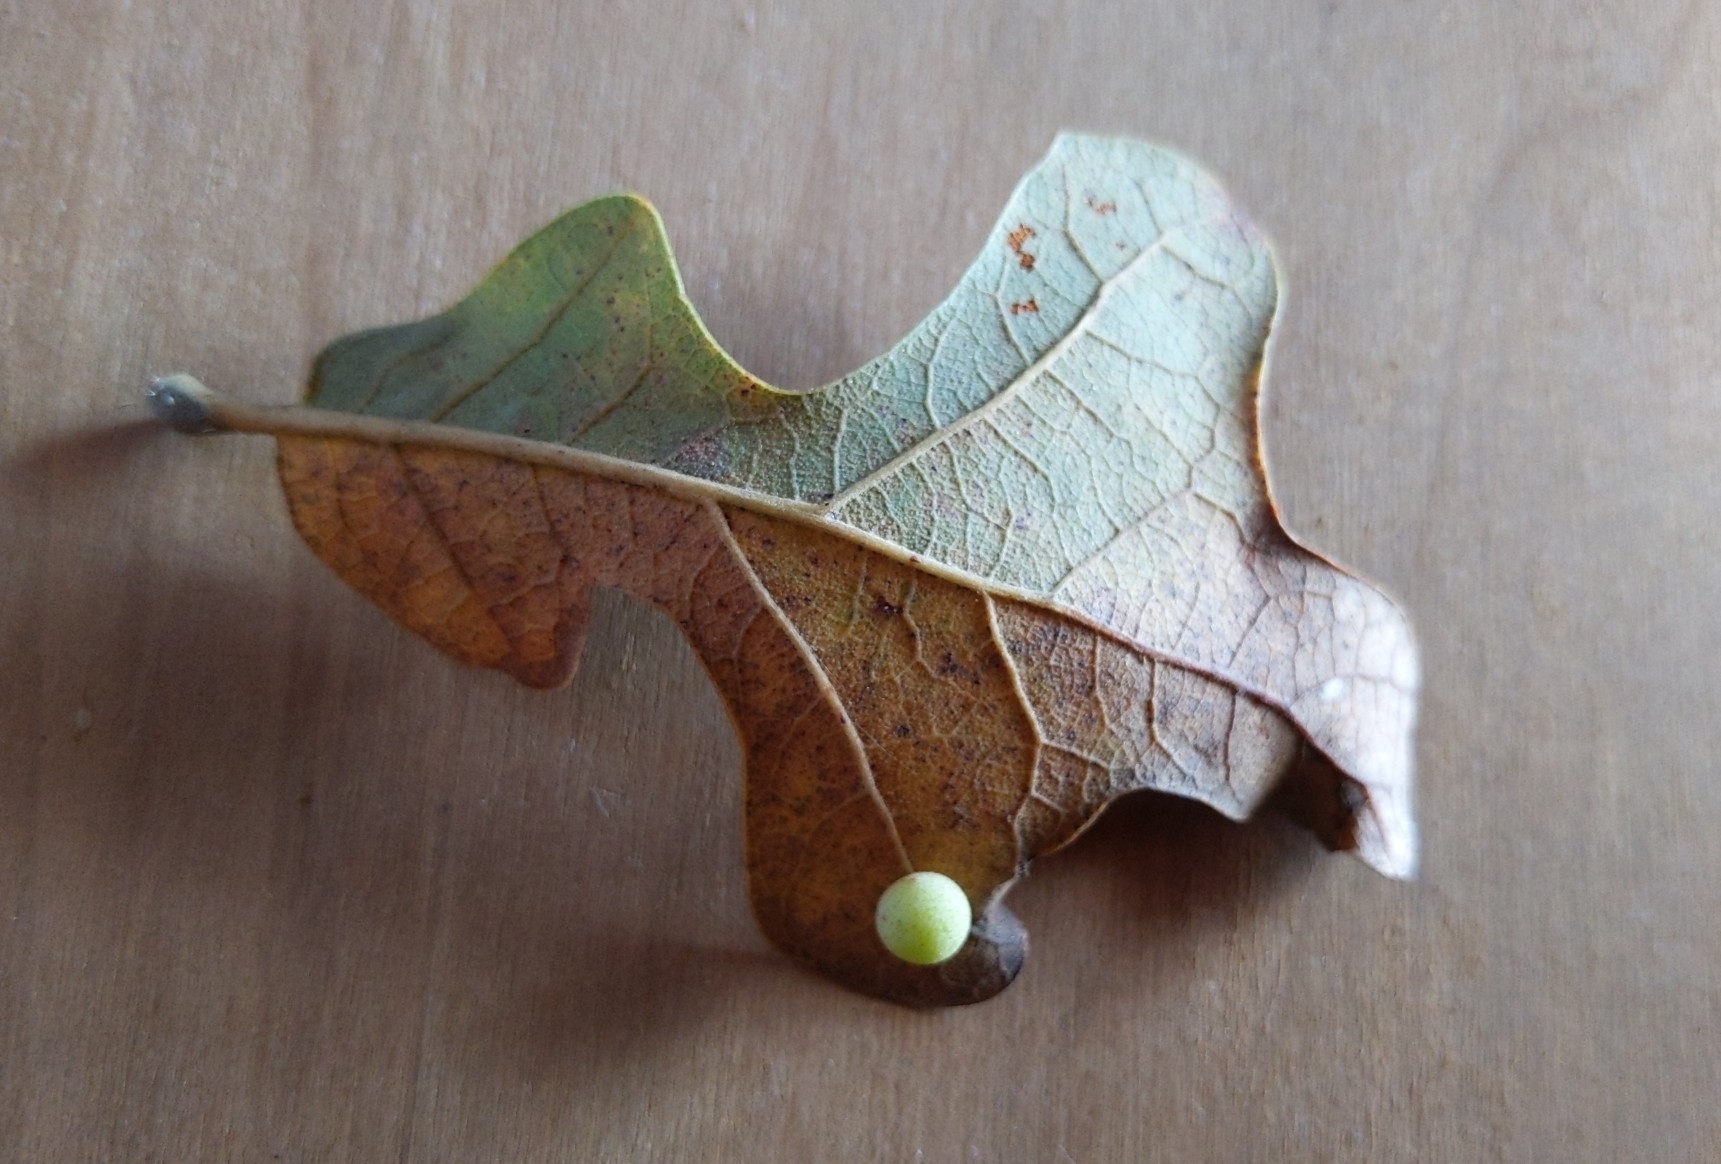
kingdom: Animalia
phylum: Arthropoda
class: Insecta
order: Hymenoptera
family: Cynipidae
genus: Atrusca
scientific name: Atrusca
